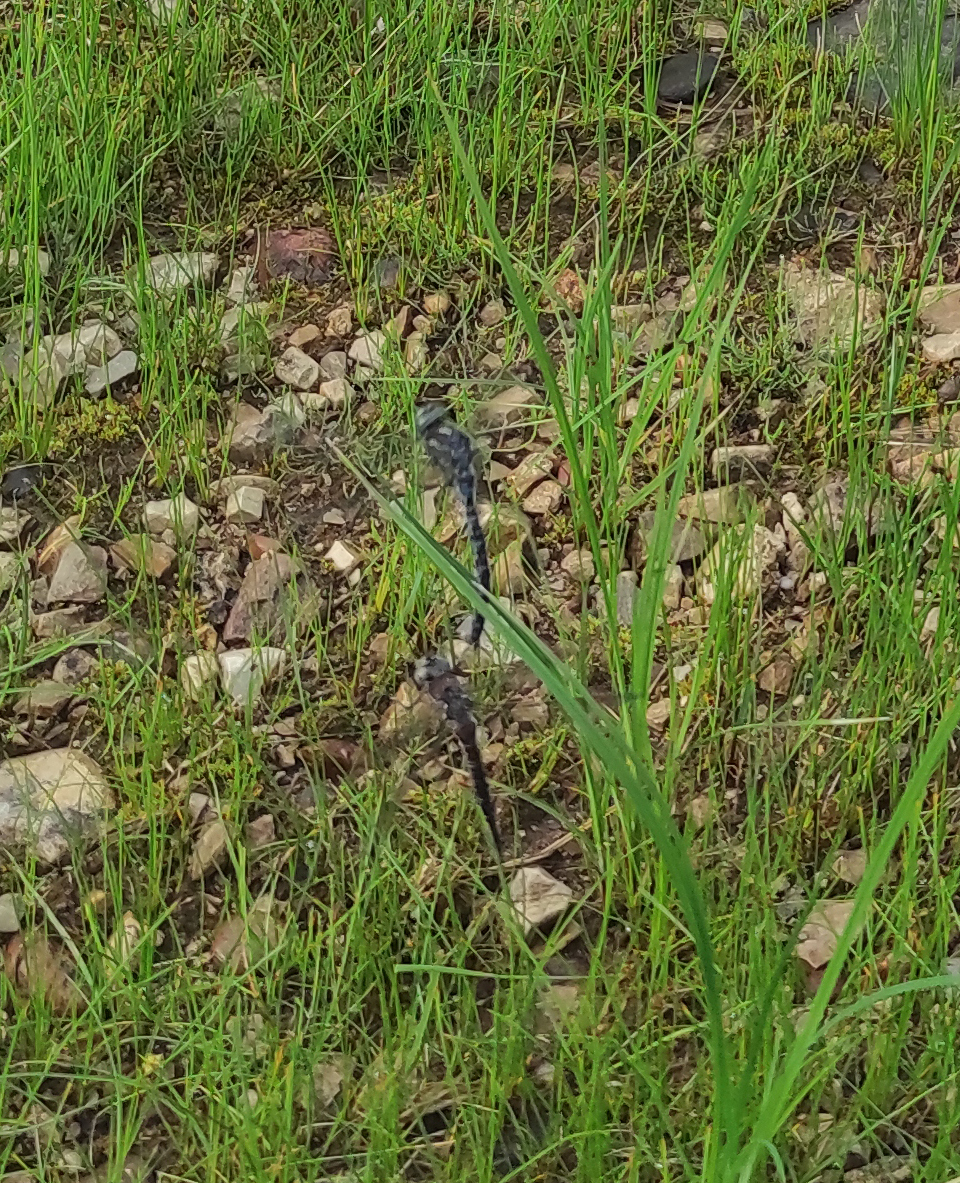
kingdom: Animalia
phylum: Arthropoda
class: Insecta
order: Odonata
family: Aeshnidae
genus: Aeshna
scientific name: Aeshna crenata
